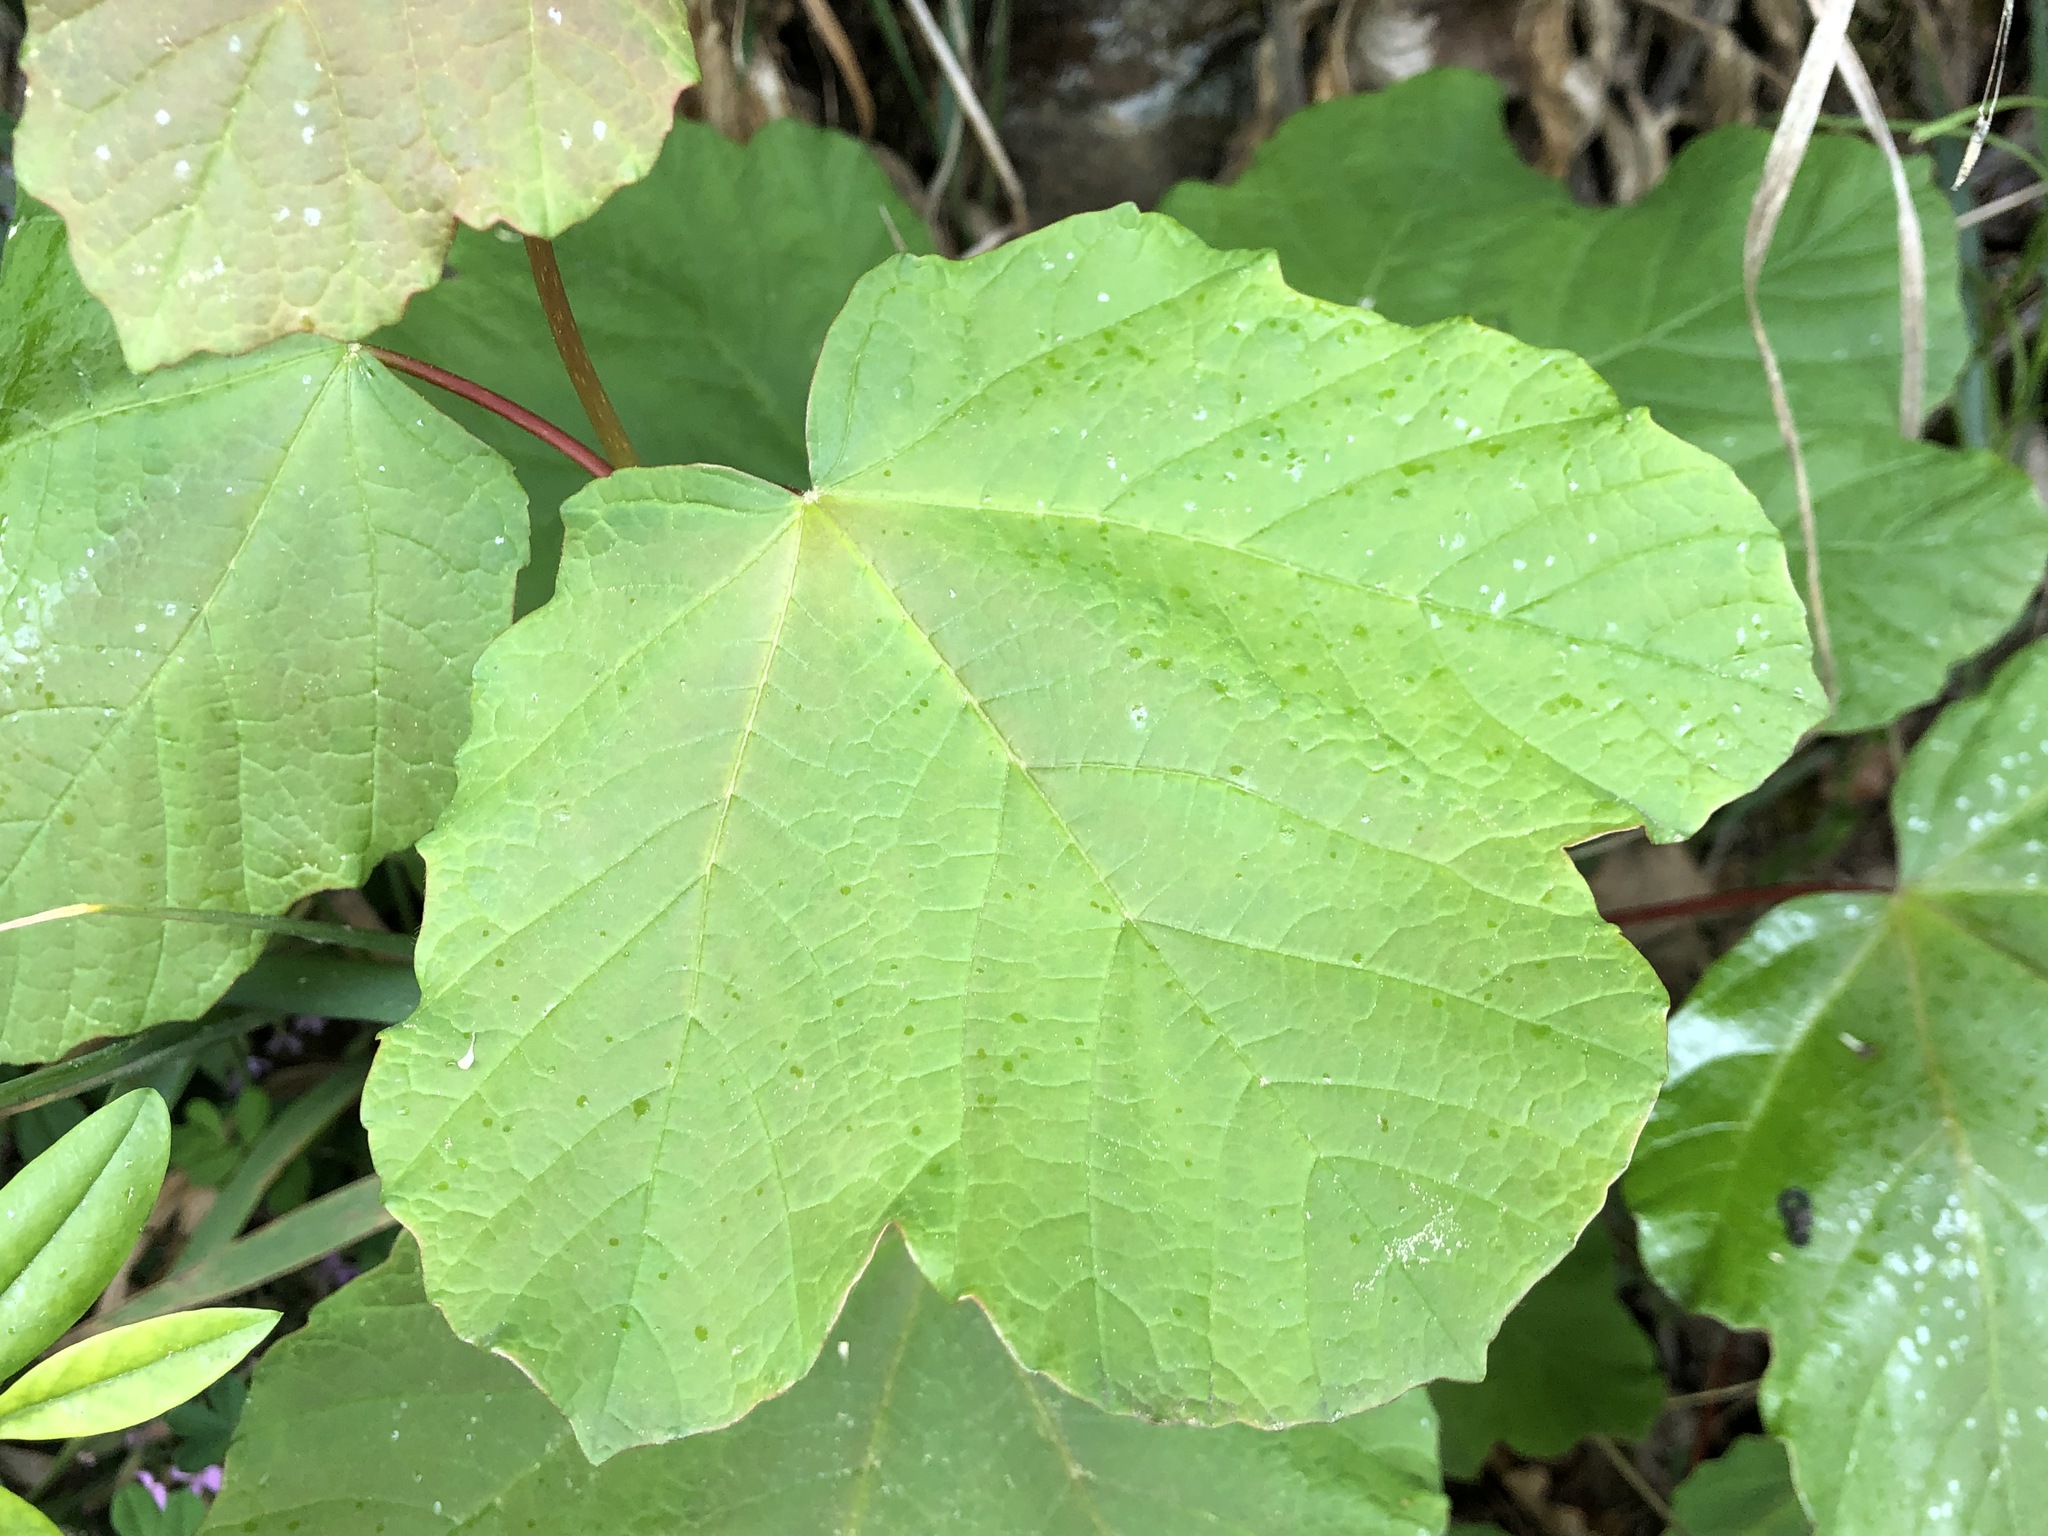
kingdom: Plantae
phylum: Tracheophyta
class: Magnoliopsida
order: Dipsacales
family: Viburnaceae
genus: Viburnum
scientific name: Viburnum opulus
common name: Guelder-rose
